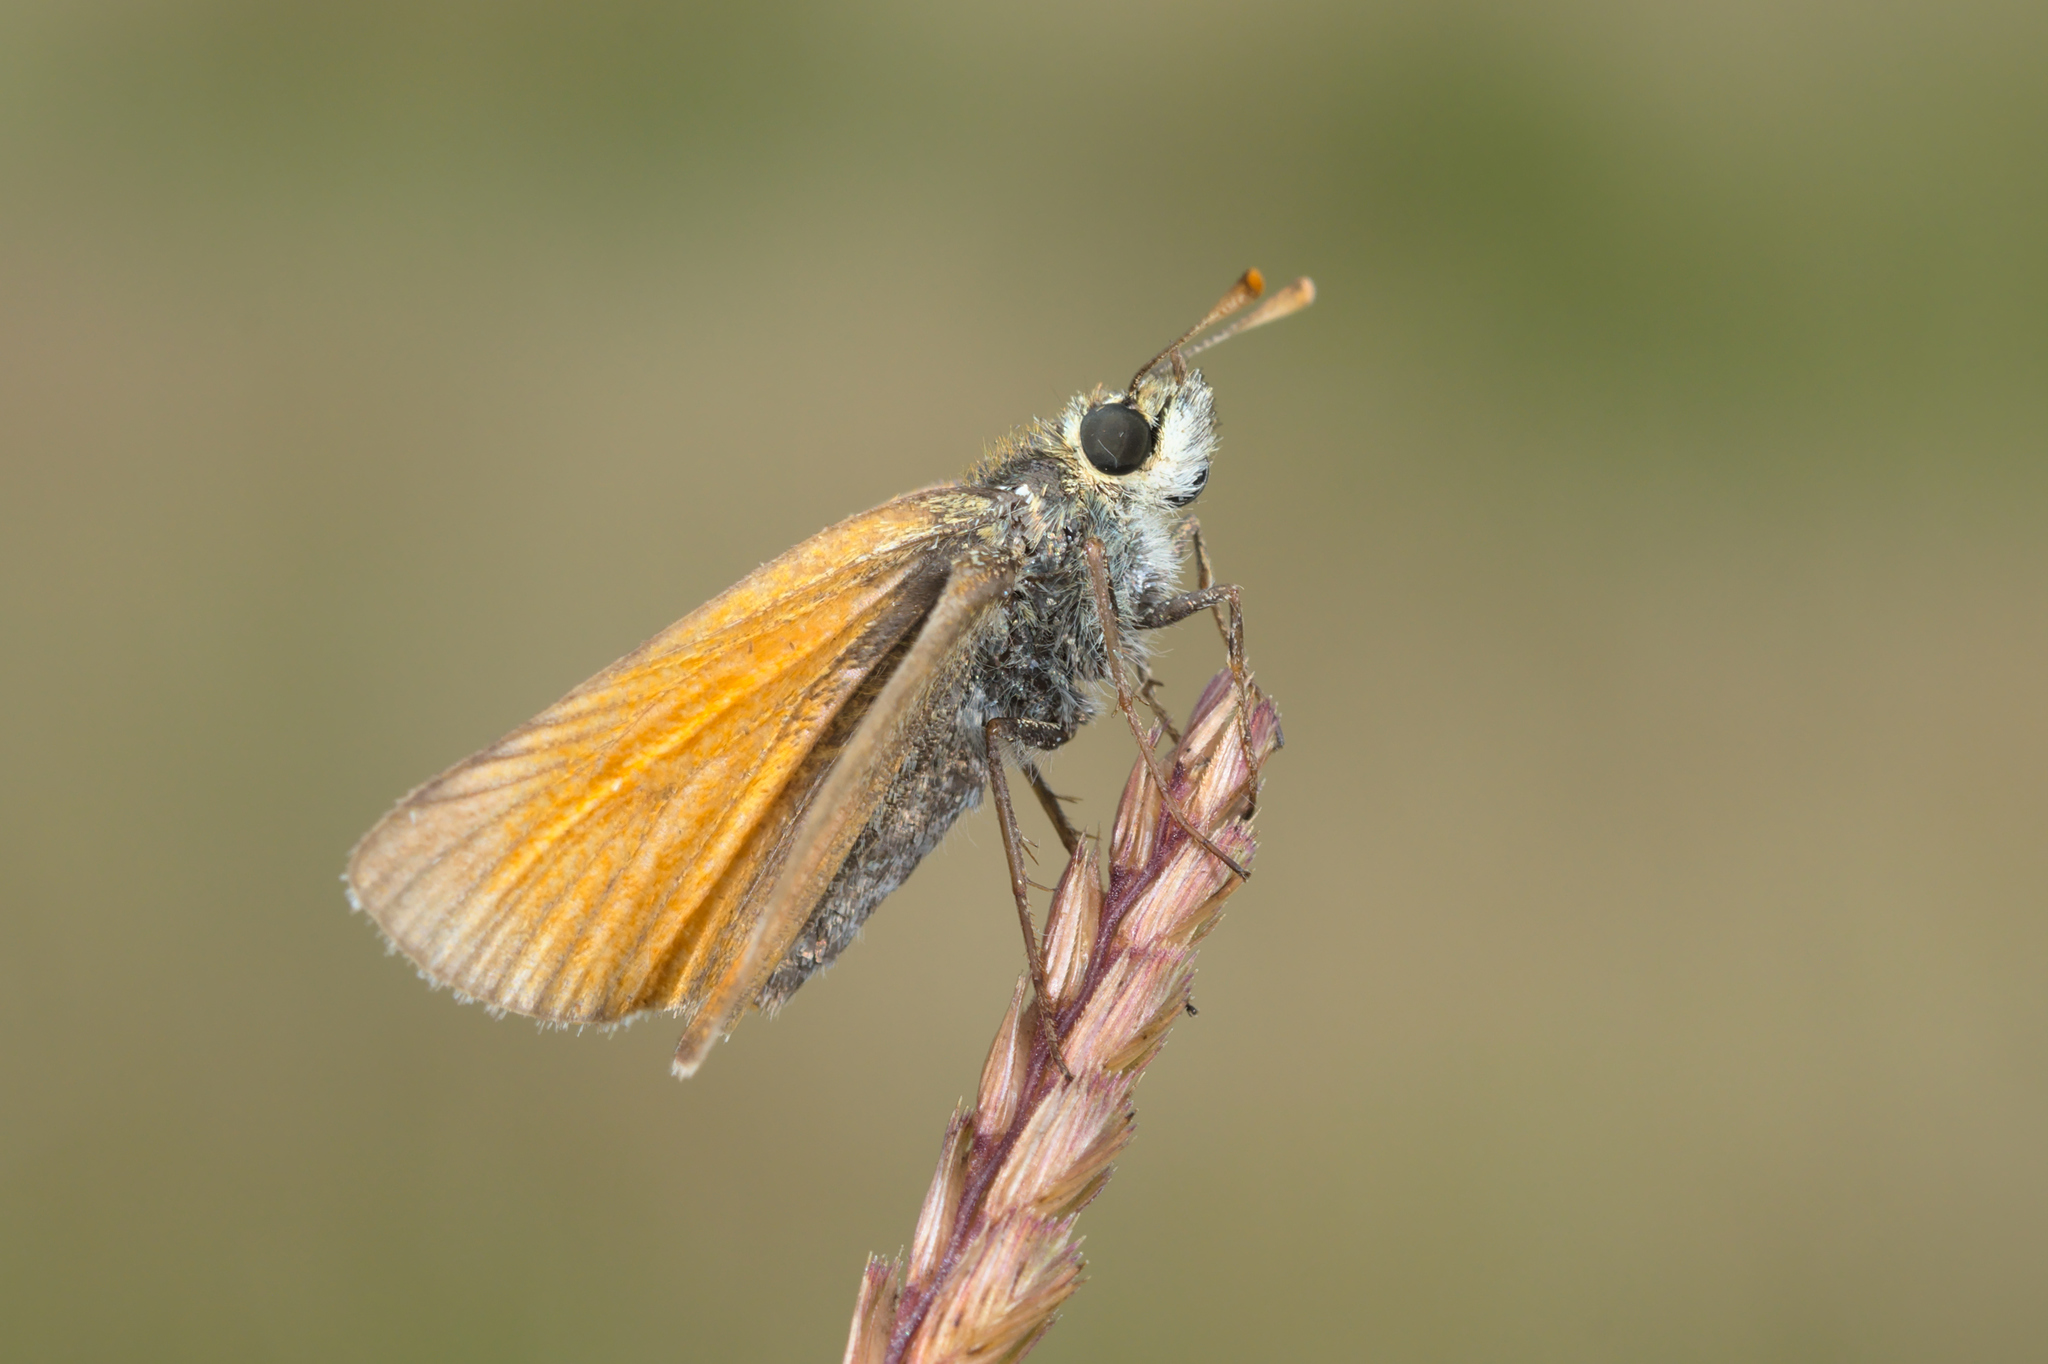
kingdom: Animalia
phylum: Arthropoda
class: Insecta
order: Lepidoptera
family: Hesperiidae
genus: Thymelicus
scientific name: Thymelicus sylvestris
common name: Small skipper
